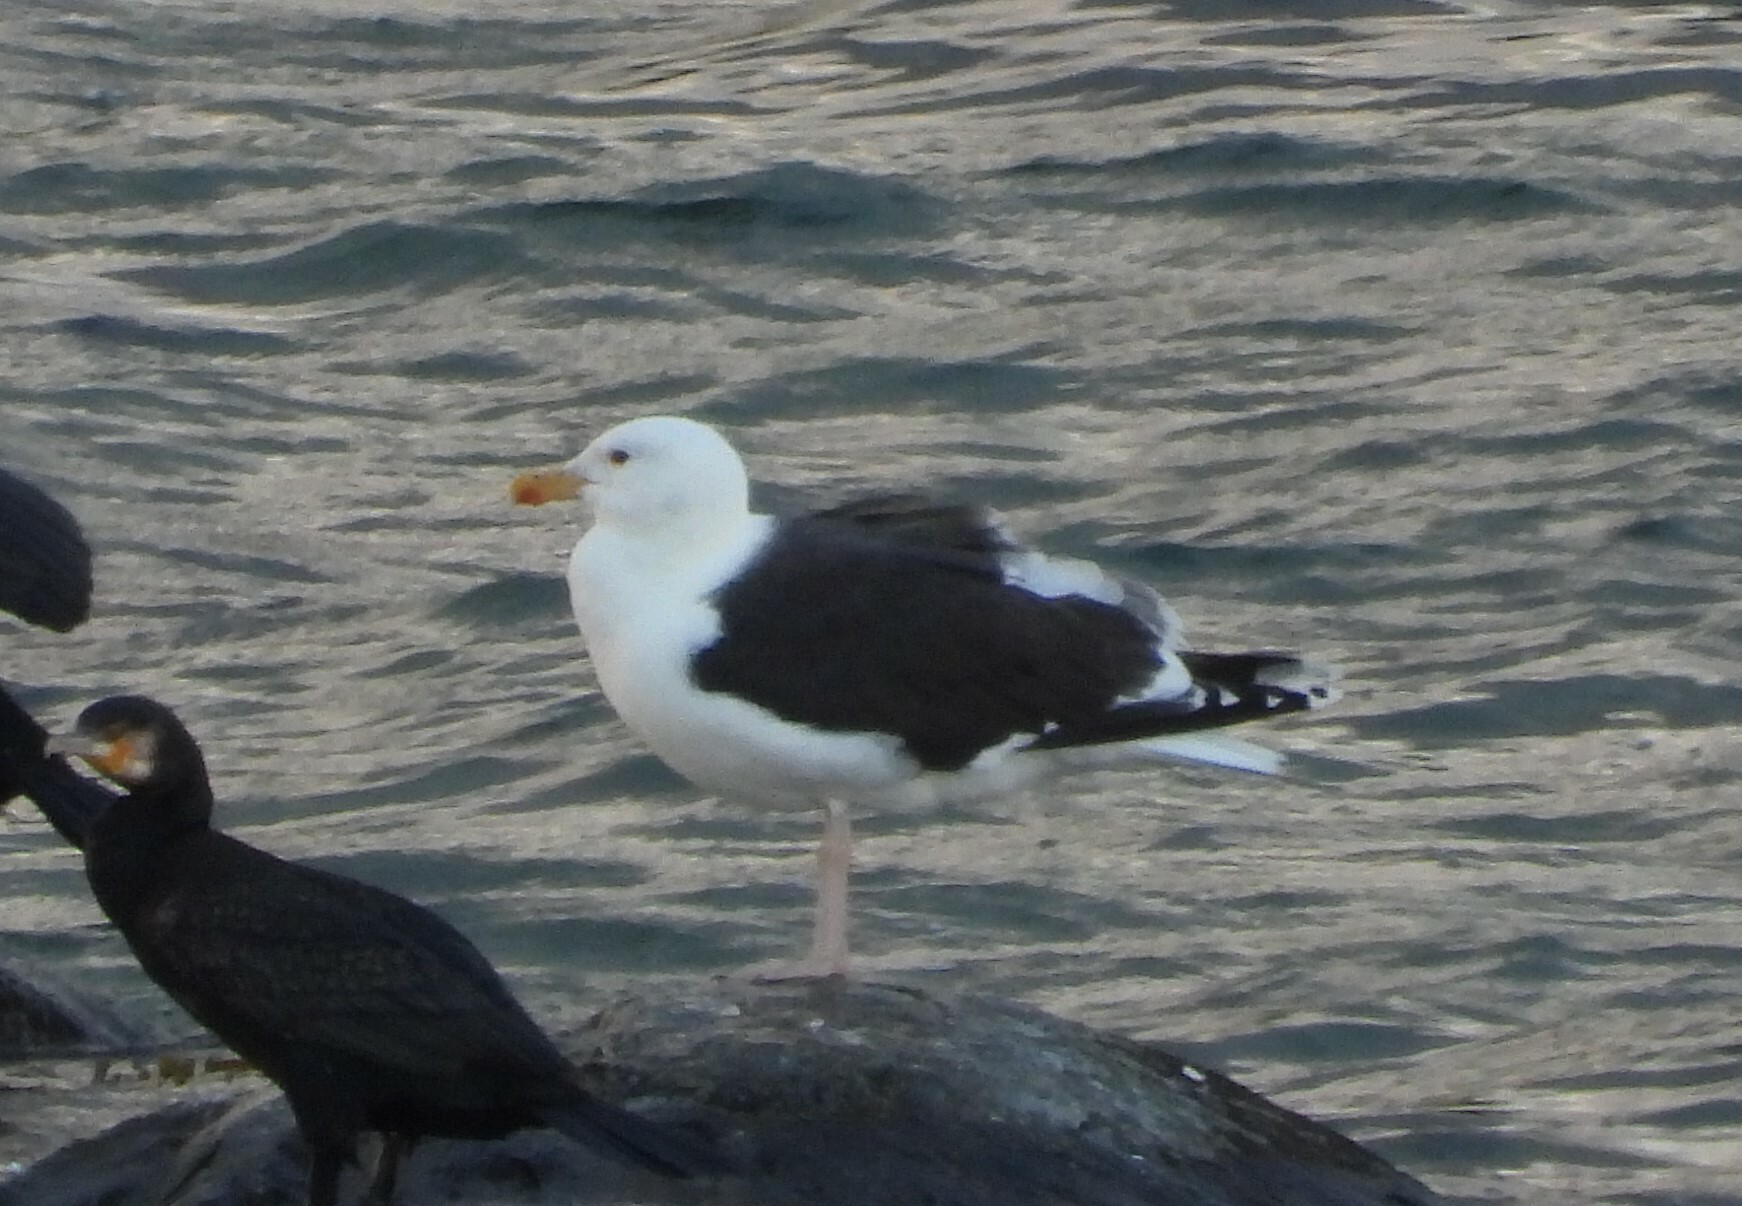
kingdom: Animalia
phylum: Chordata
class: Aves
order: Charadriiformes
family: Laridae
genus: Larus
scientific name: Larus marinus
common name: Great black-backed gull
